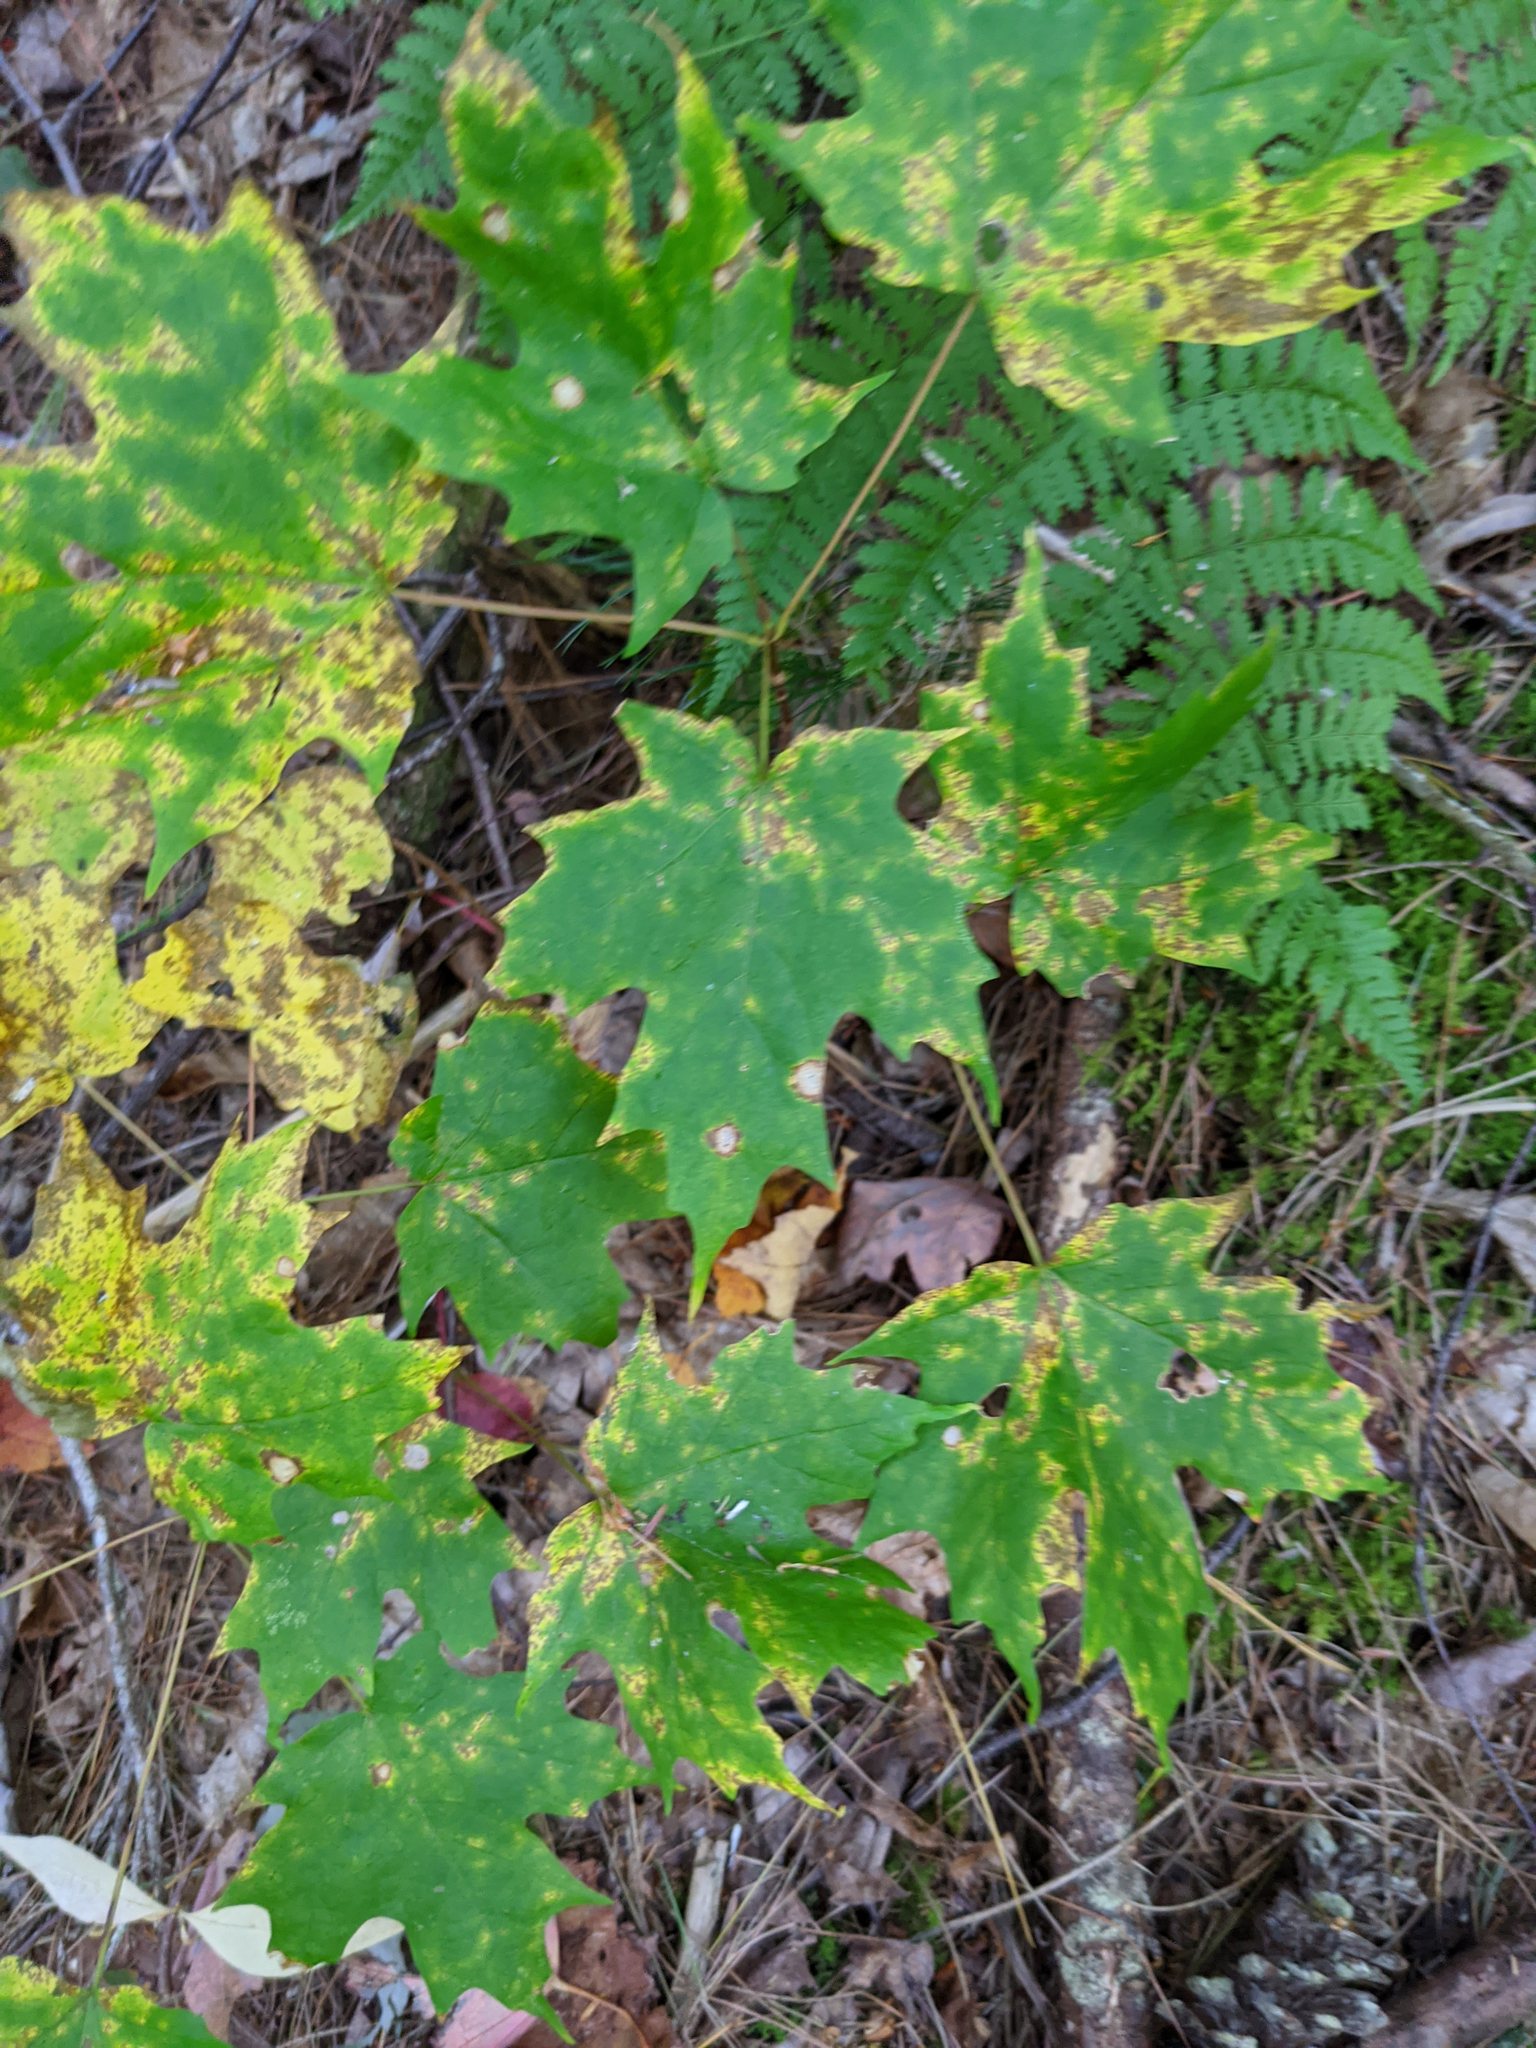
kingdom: Plantae
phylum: Tracheophyta
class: Magnoliopsida
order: Sapindales
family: Sapindaceae
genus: Acer
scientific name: Acer saccharum
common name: Sugar maple
